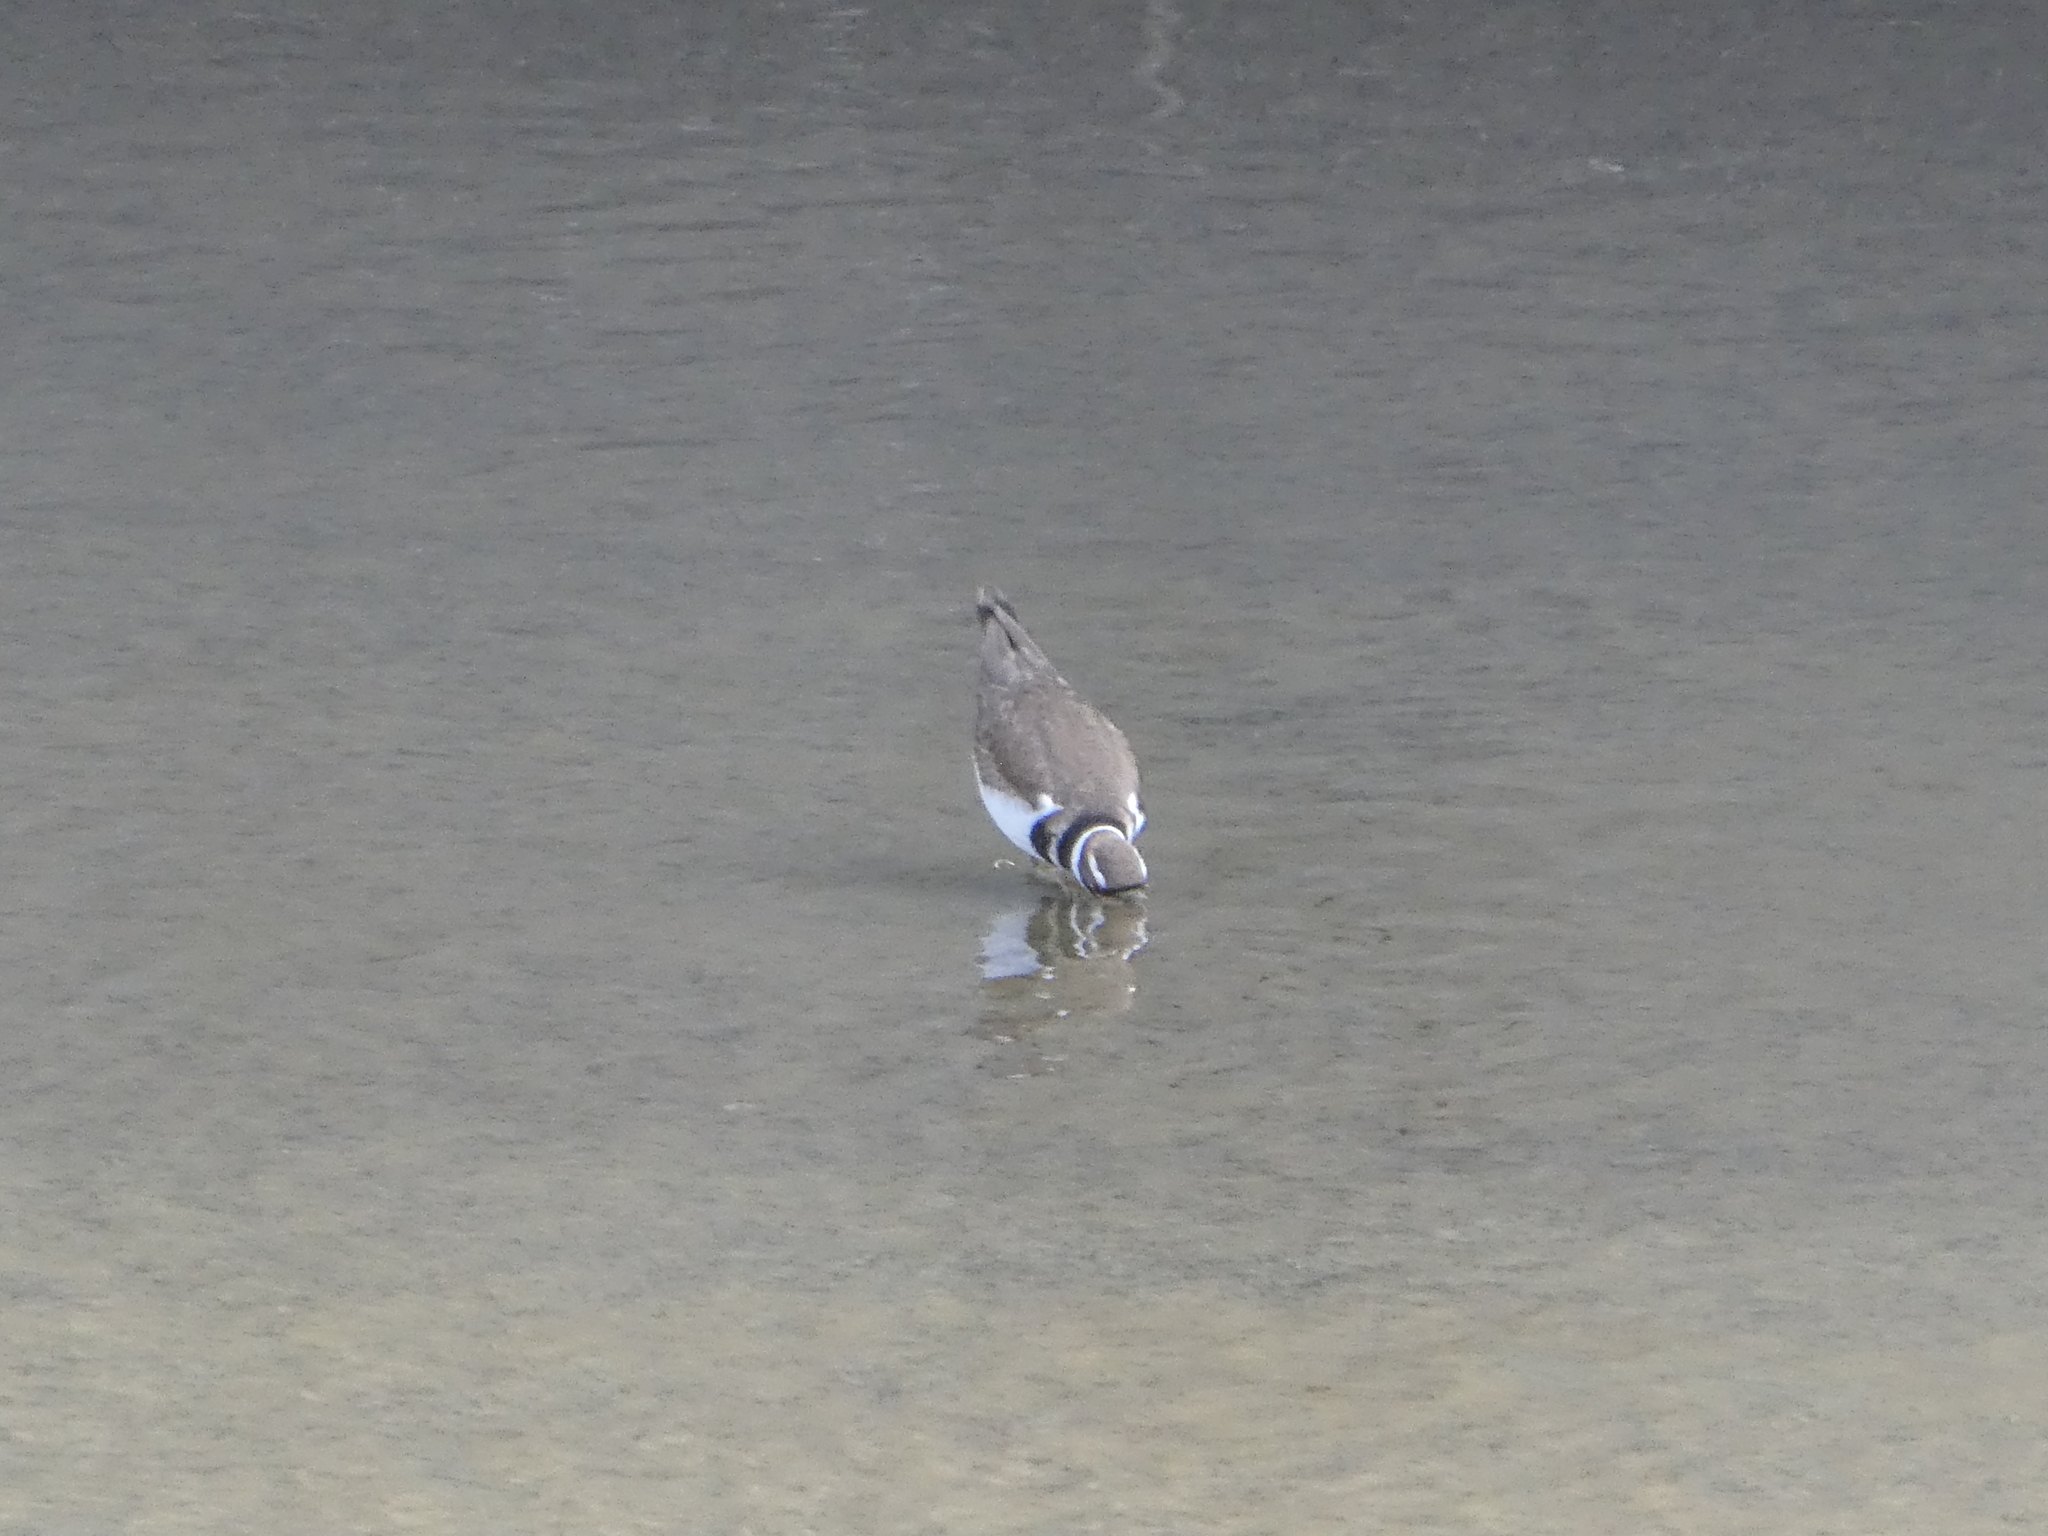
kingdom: Animalia
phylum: Chordata
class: Aves
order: Charadriiformes
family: Charadriidae
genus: Charadrius
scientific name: Charadrius vociferus
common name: Killdeer
